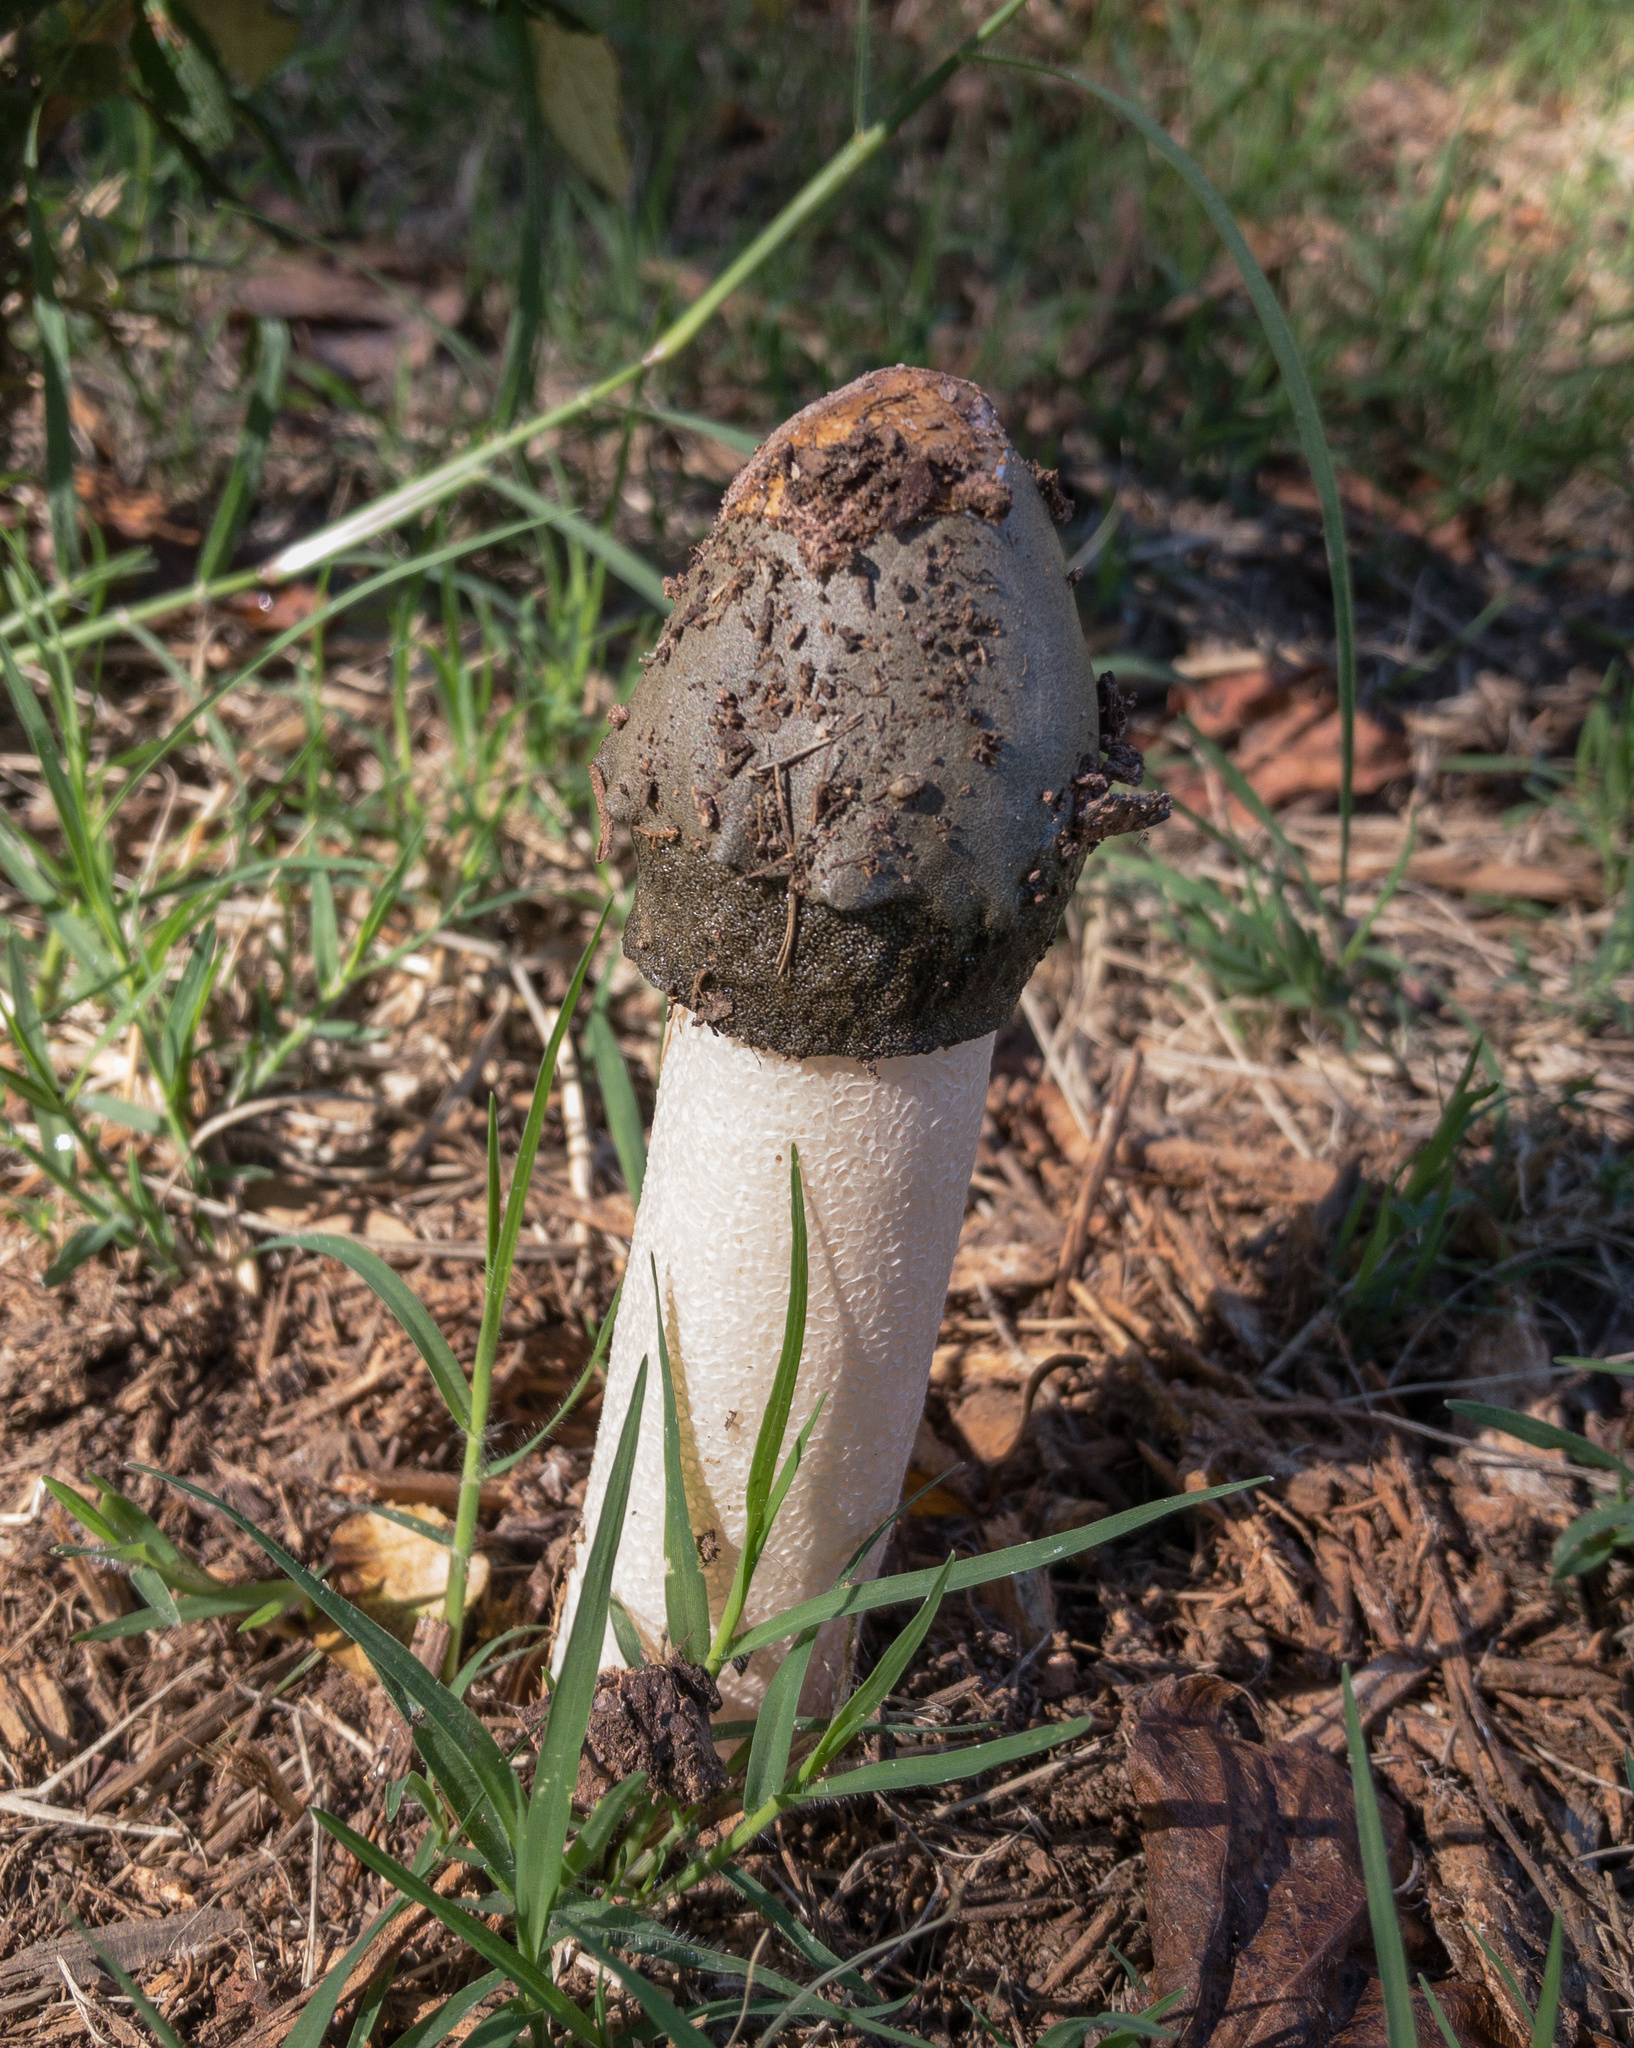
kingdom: Fungi
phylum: Basidiomycota
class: Agaricomycetes
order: Phallales
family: Phallaceae
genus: Phallus
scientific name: Phallus ravenelii
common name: Ravenel's stinkhorn
